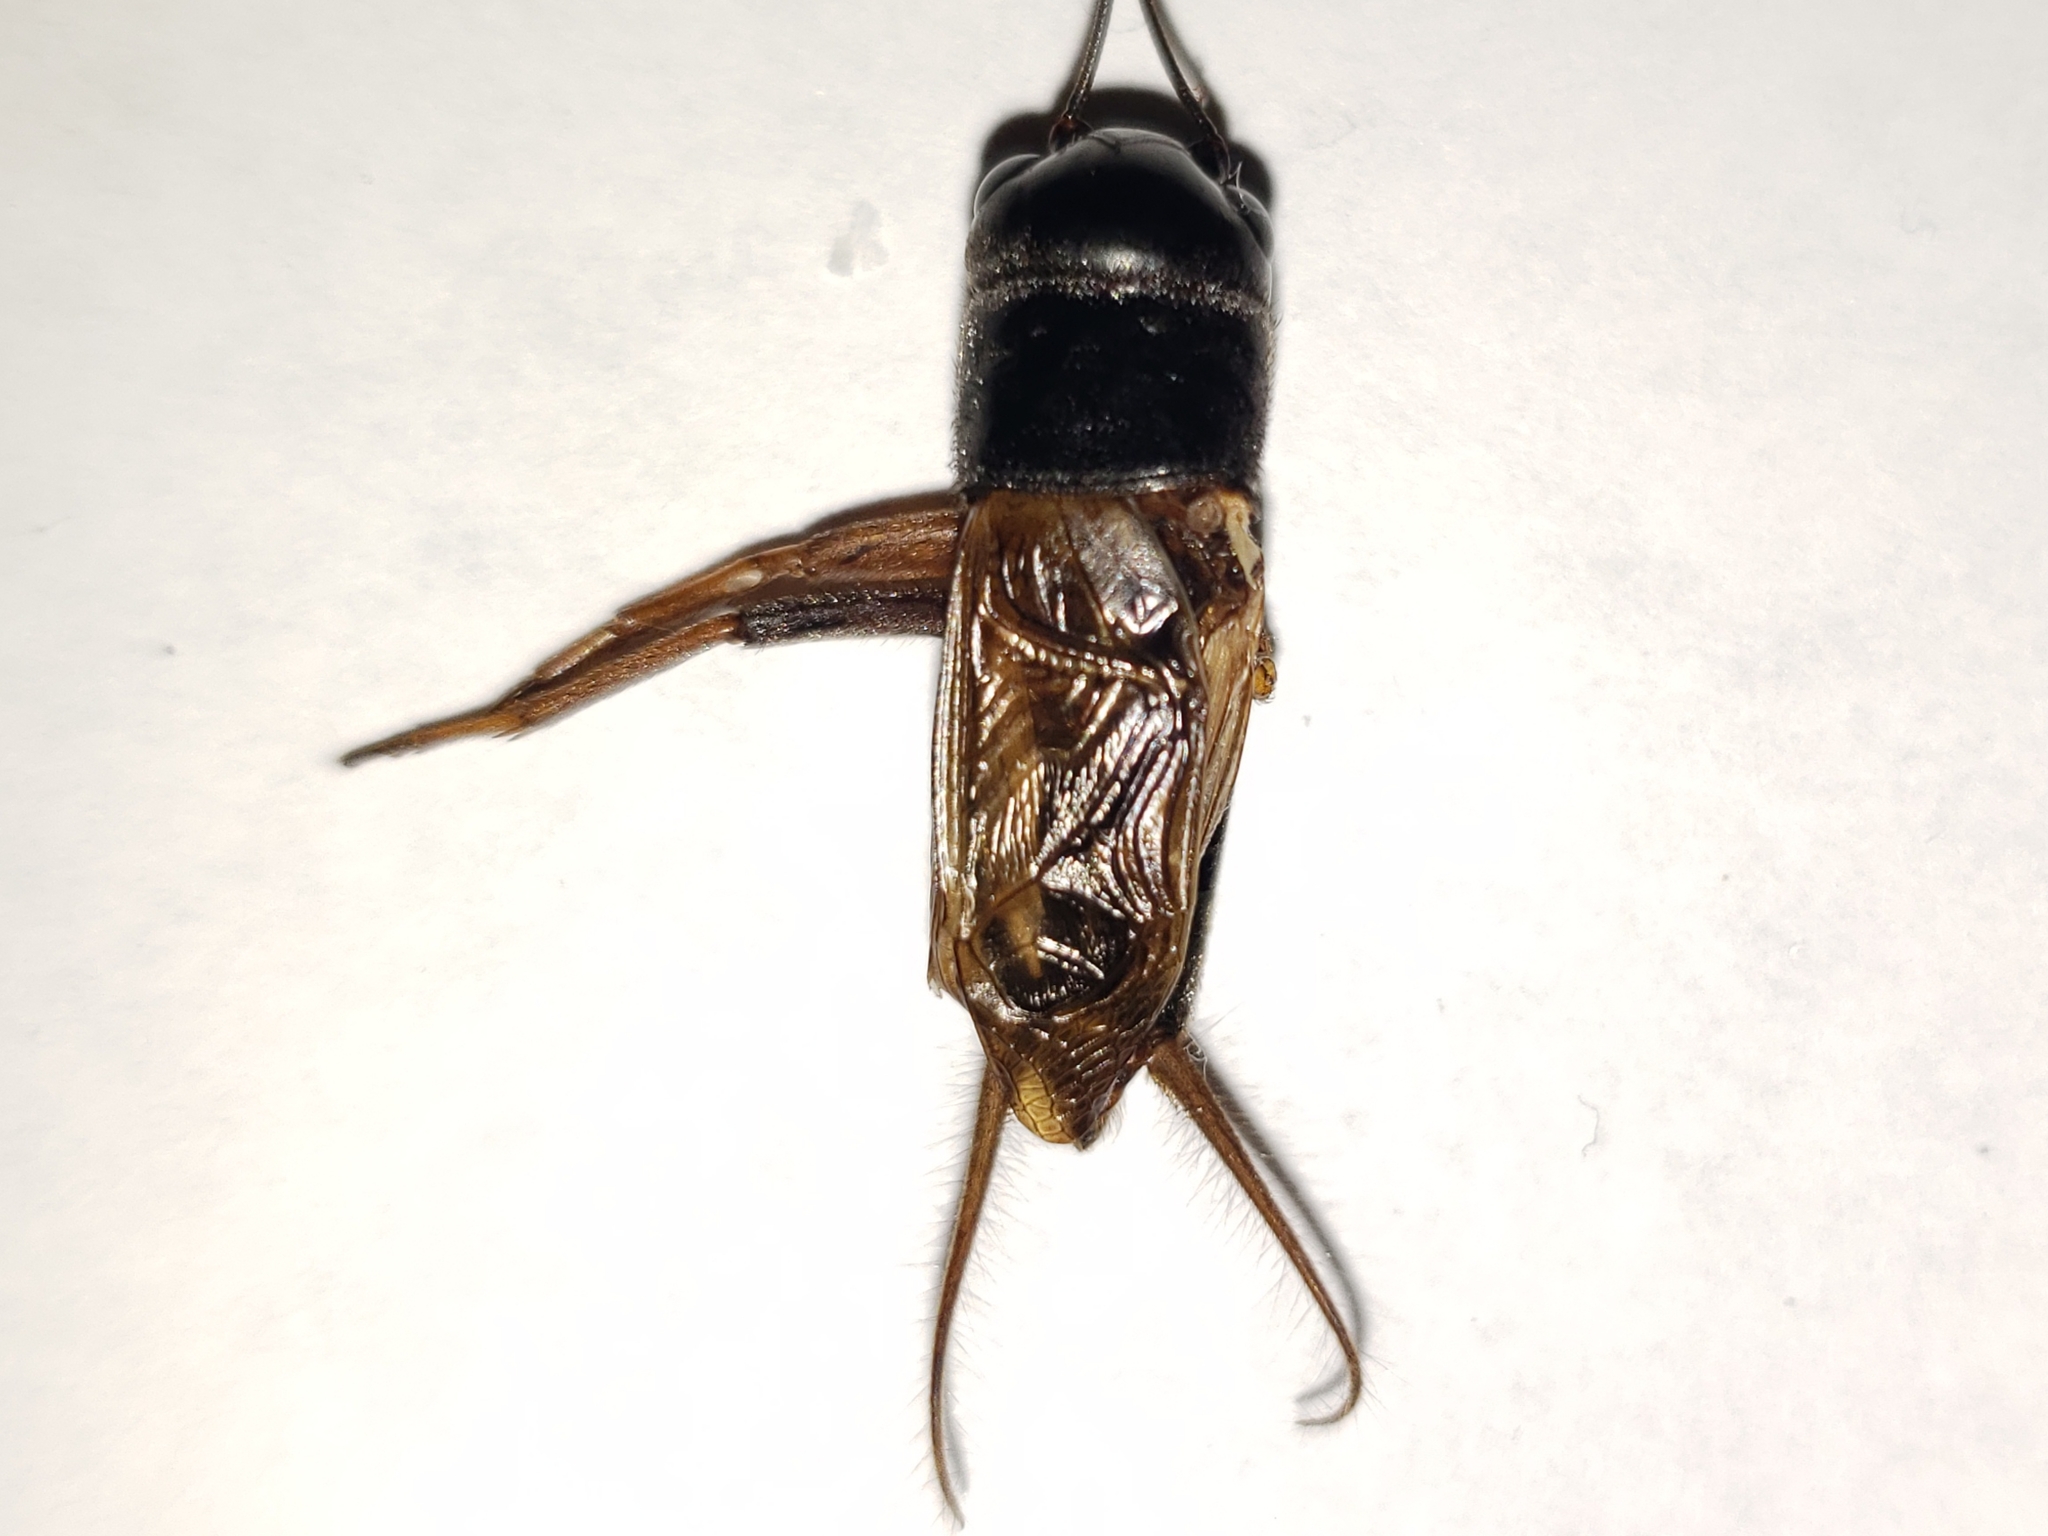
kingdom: Animalia
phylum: Arthropoda
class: Insecta
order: Orthoptera
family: Gryllidae
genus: Gryllus
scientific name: Gryllus firmus
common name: Sand field cricket
